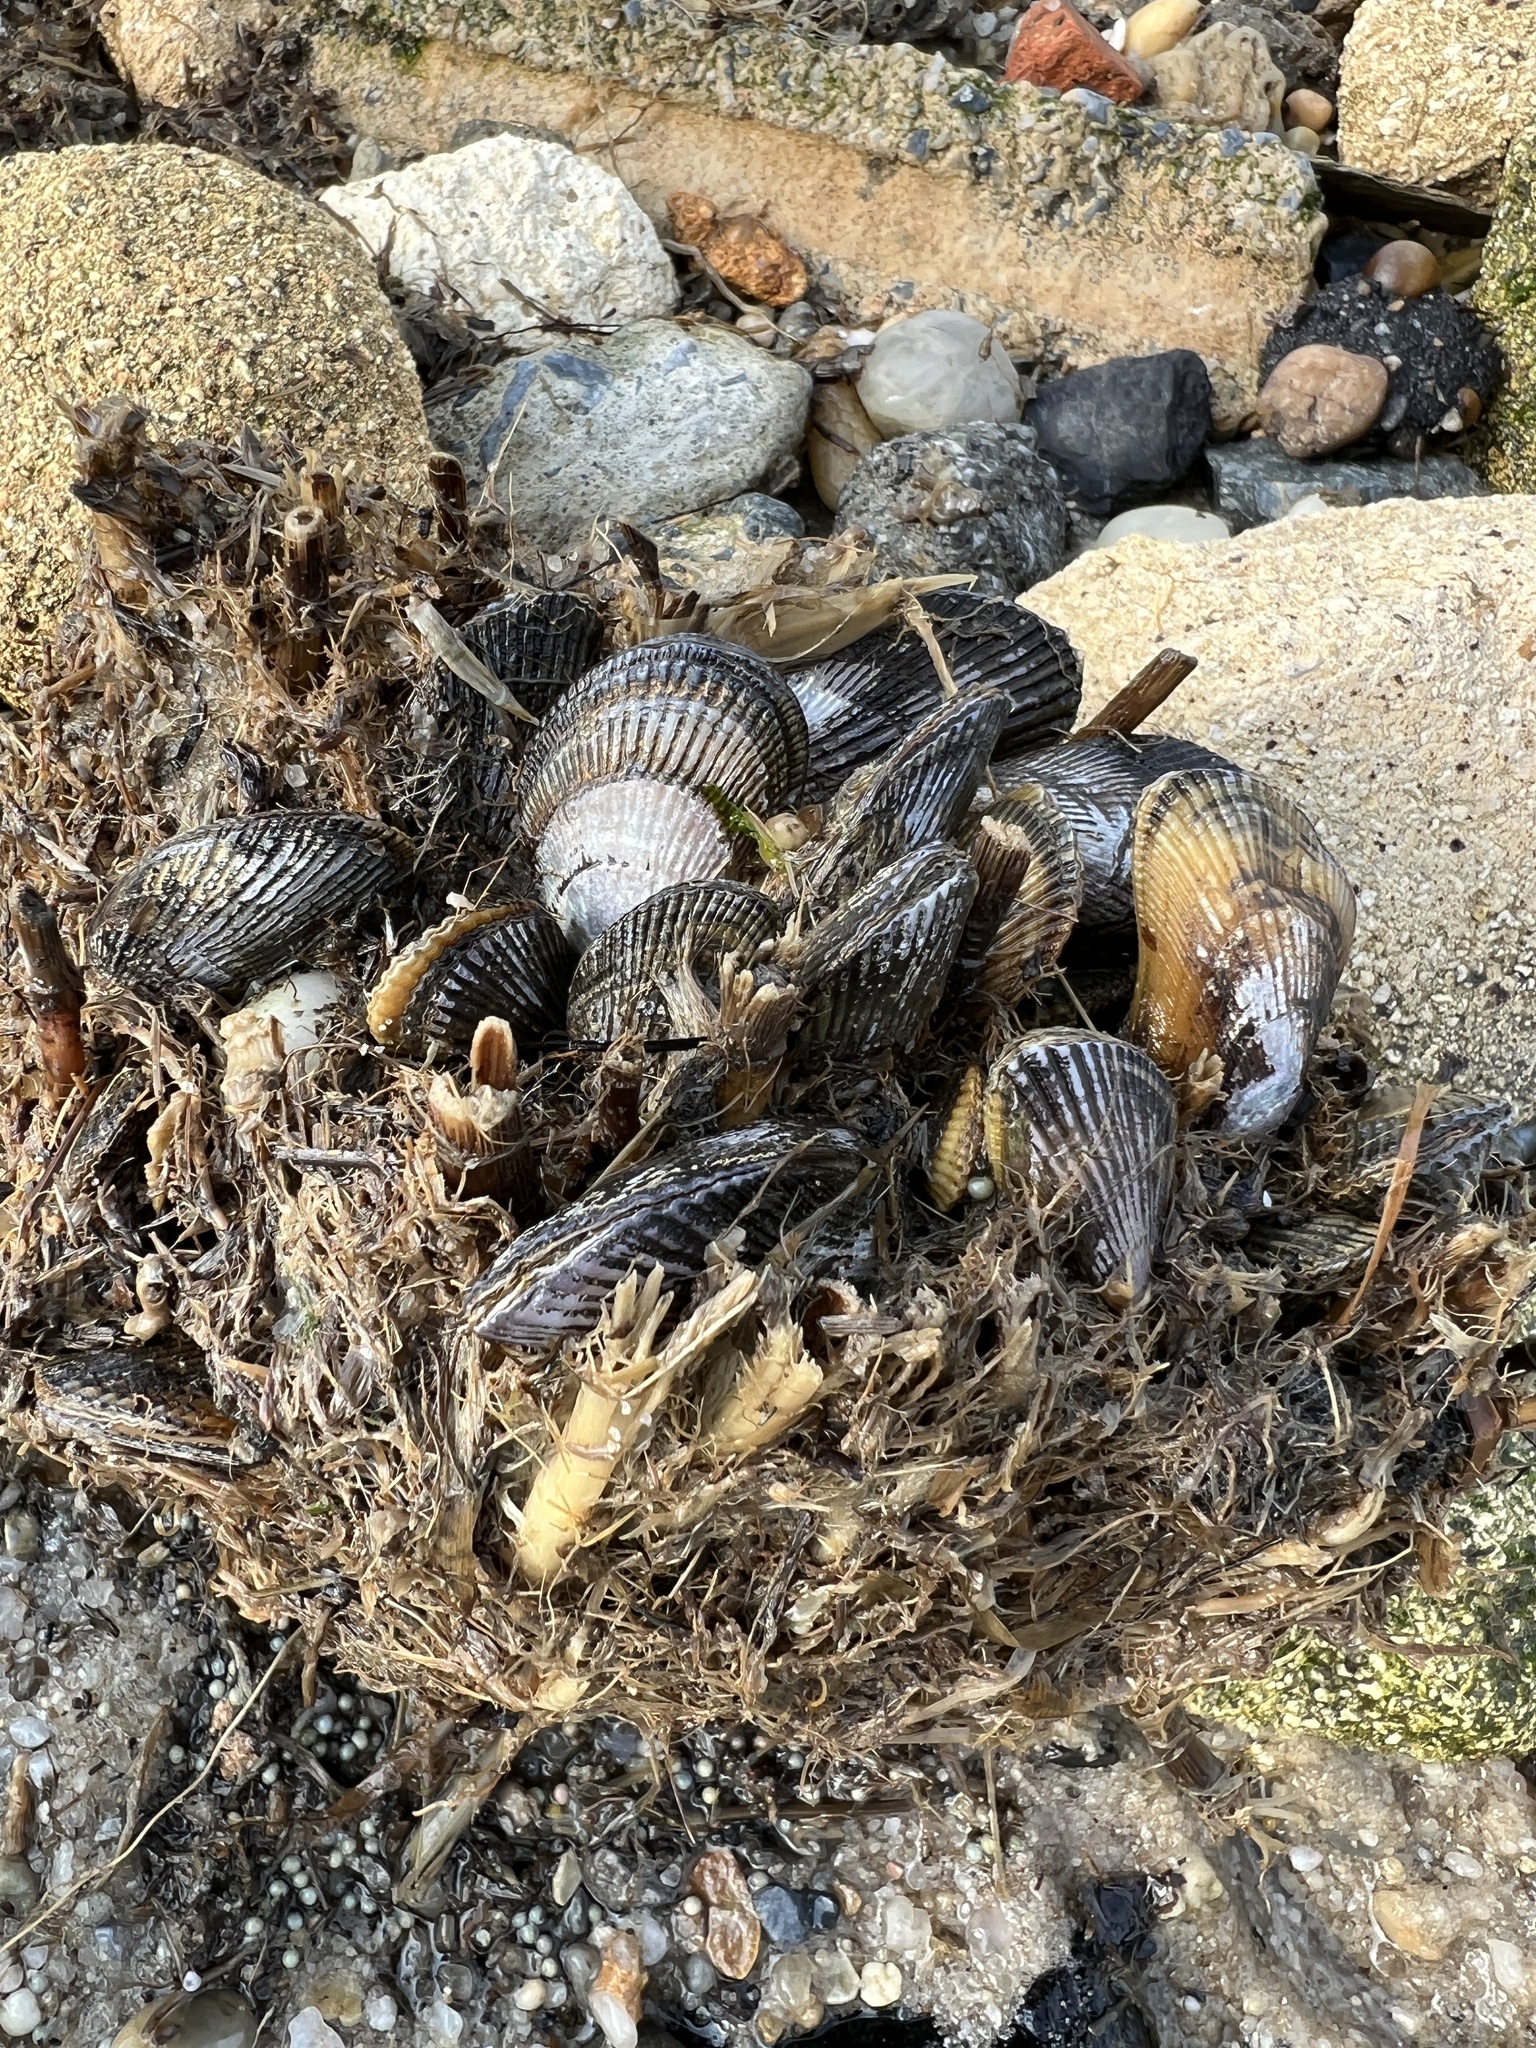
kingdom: Animalia
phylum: Mollusca
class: Bivalvia
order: Mytilida
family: Mytilidae
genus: Geukensia
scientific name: Geukensia demissa
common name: Ribbed mussel
